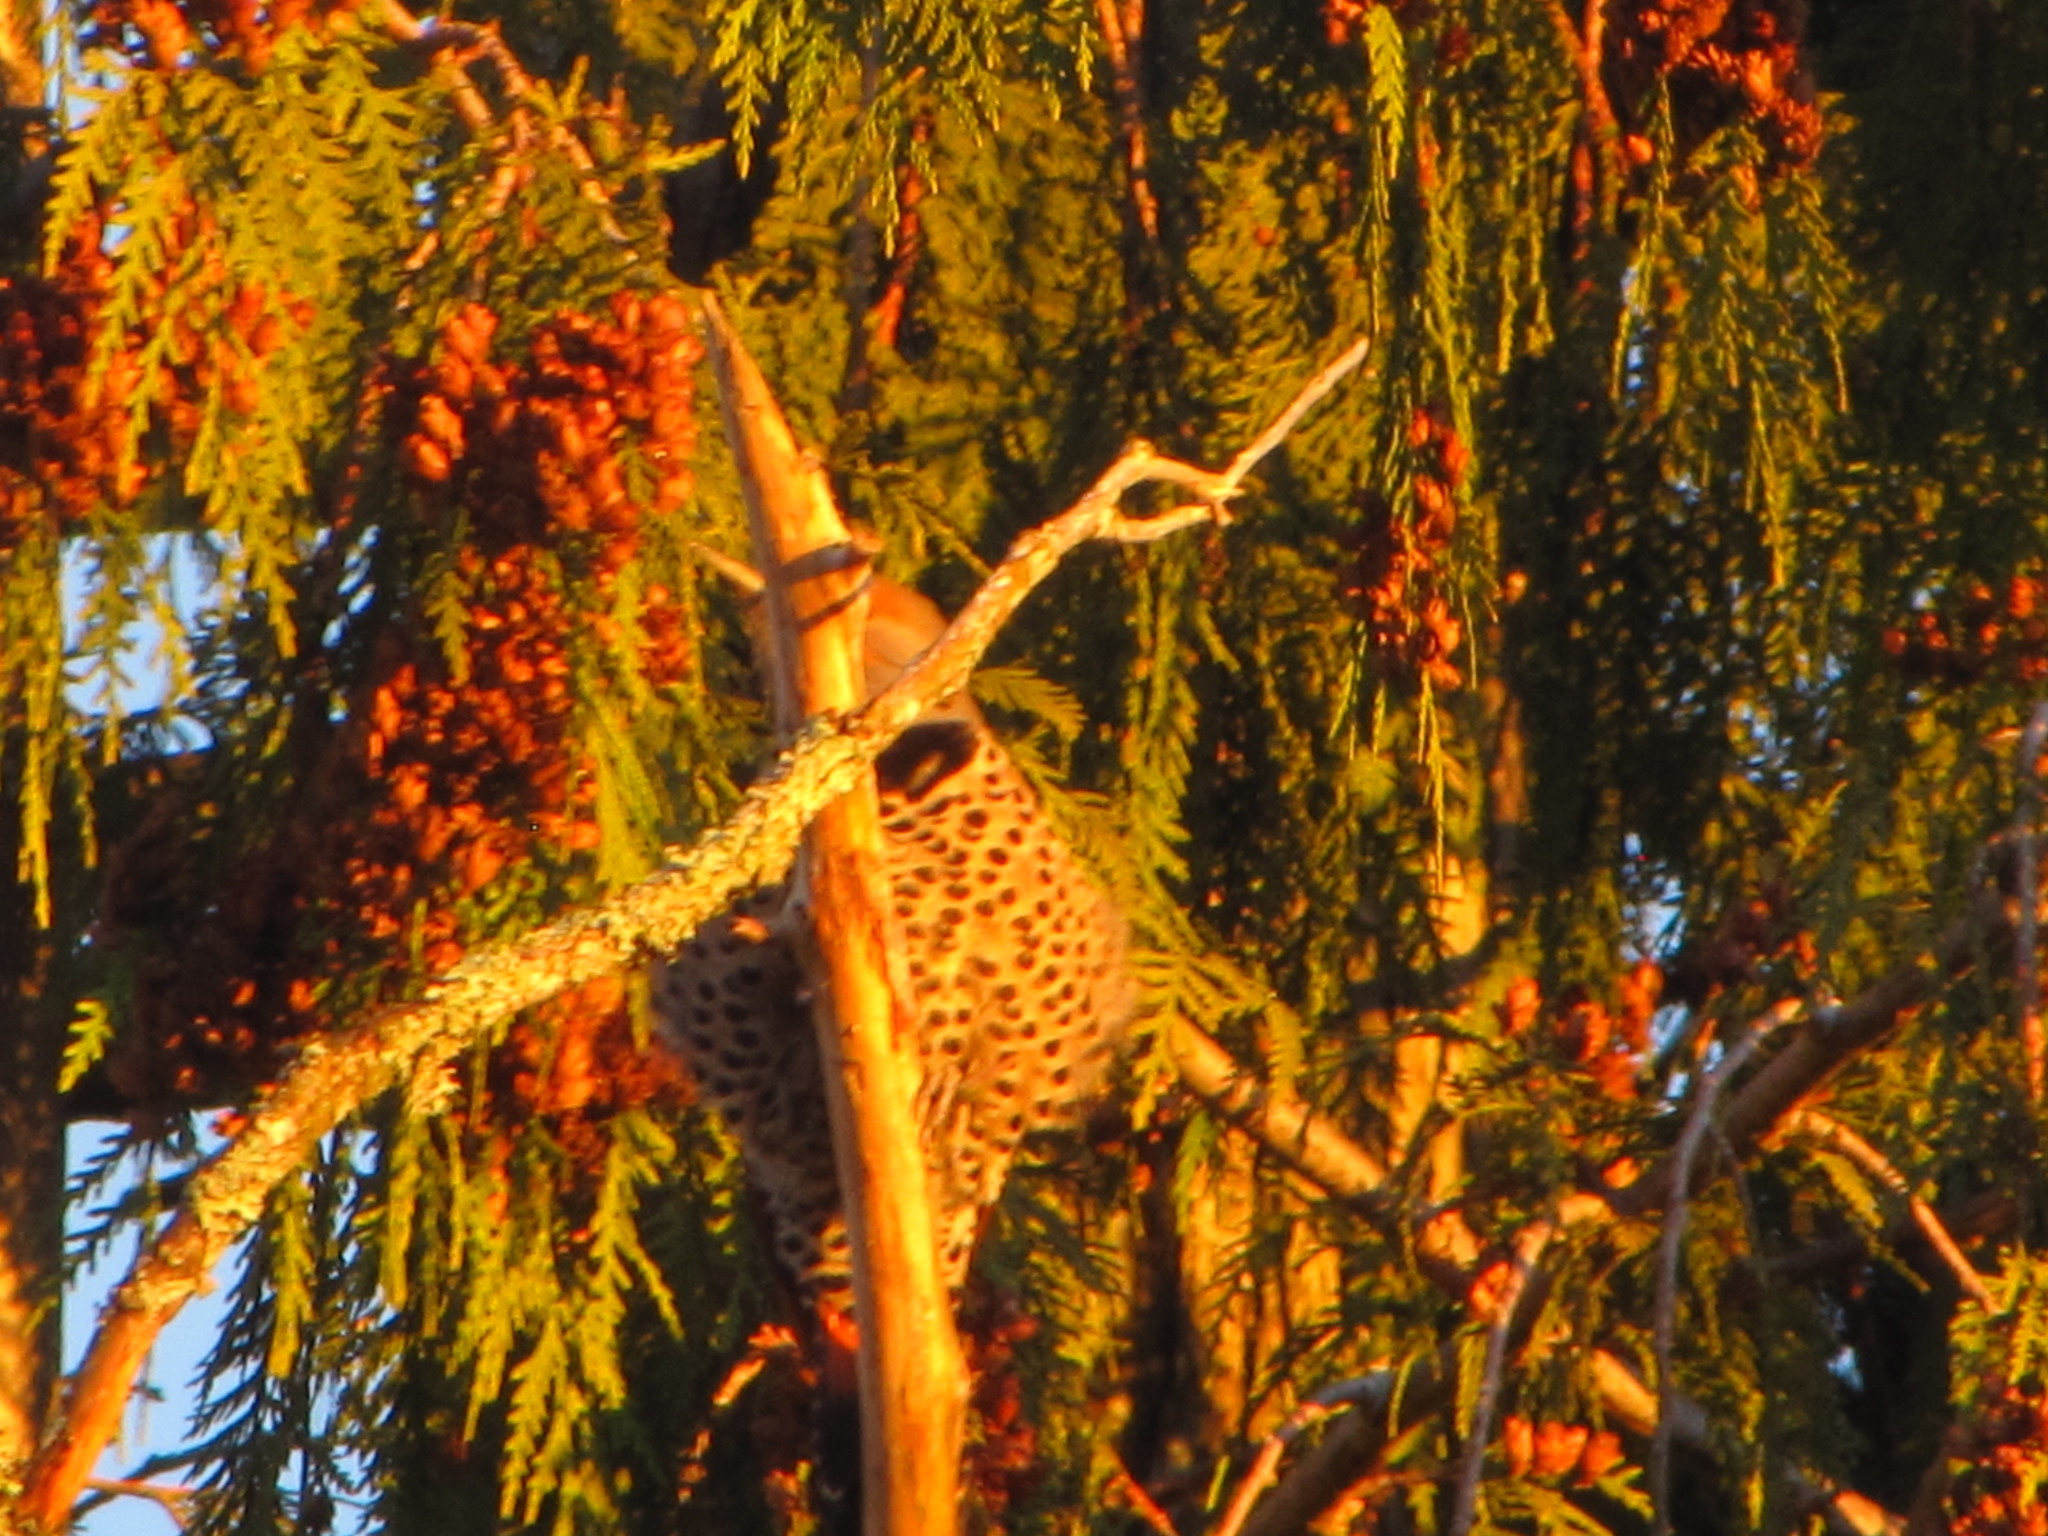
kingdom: Animalia
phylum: Chordata
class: Aves
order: Piciformes
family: Picidae
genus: Colaptes
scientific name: Colaptes auratus
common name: Northern flicker
